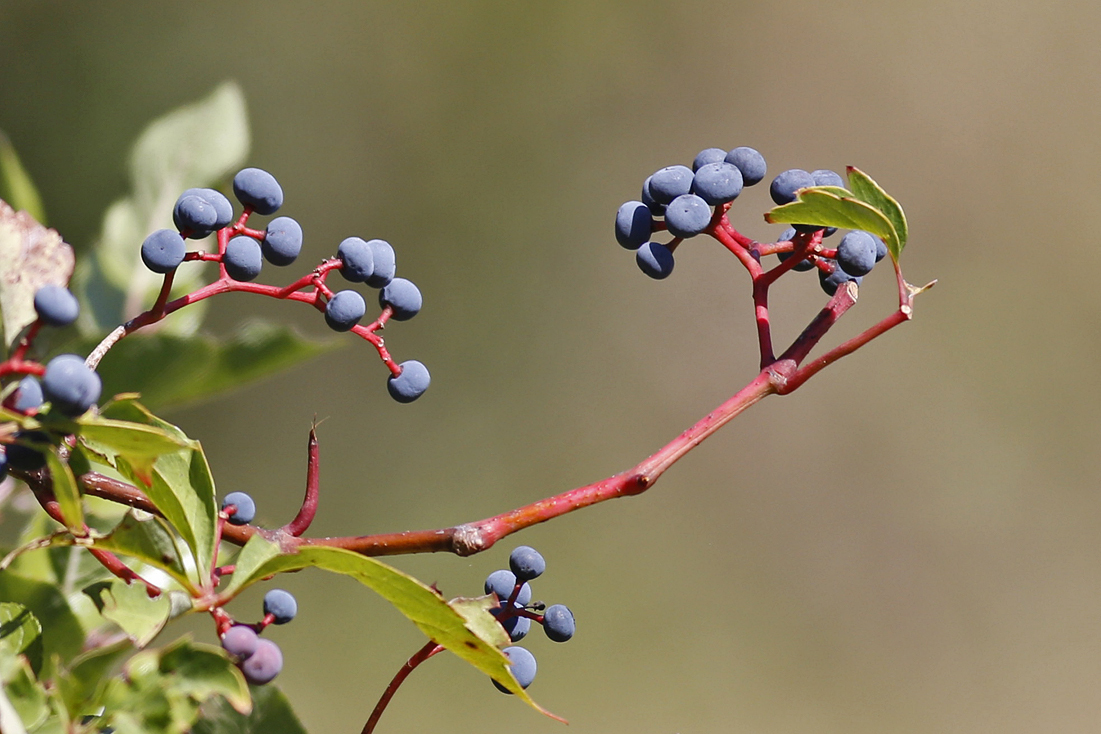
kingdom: Plantae
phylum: Tracheophyta
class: Magnoliopsida
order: Vitales
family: Vitaceae
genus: Parthenocissus
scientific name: Parthenocissus quinquefolia
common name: Virginia-creeper
